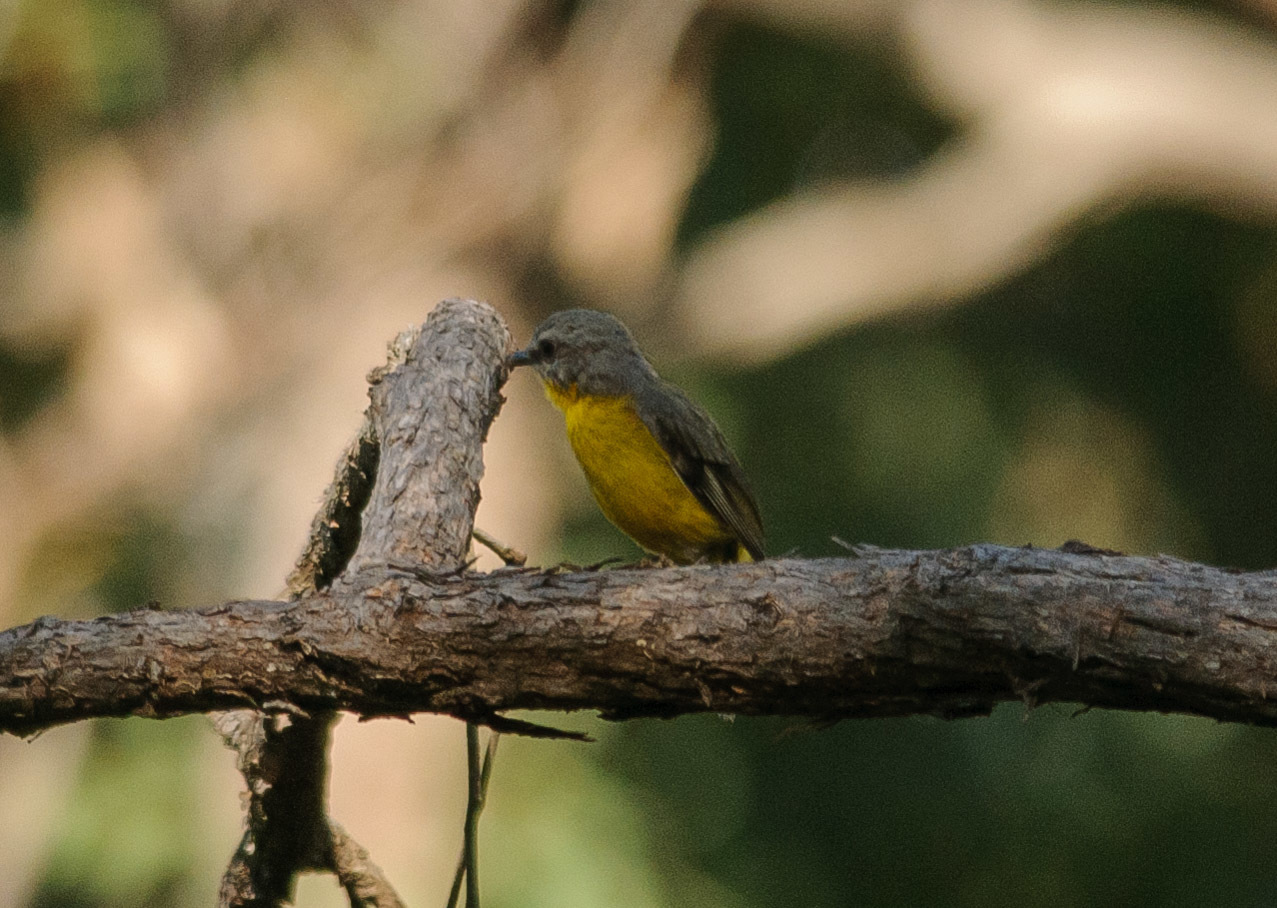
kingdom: Animalia
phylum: Chordata
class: Aves
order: Passeriformes
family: Petroicidae
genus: Eopsaltria
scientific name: Eopsaltria australis
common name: Eastern yellow robin
